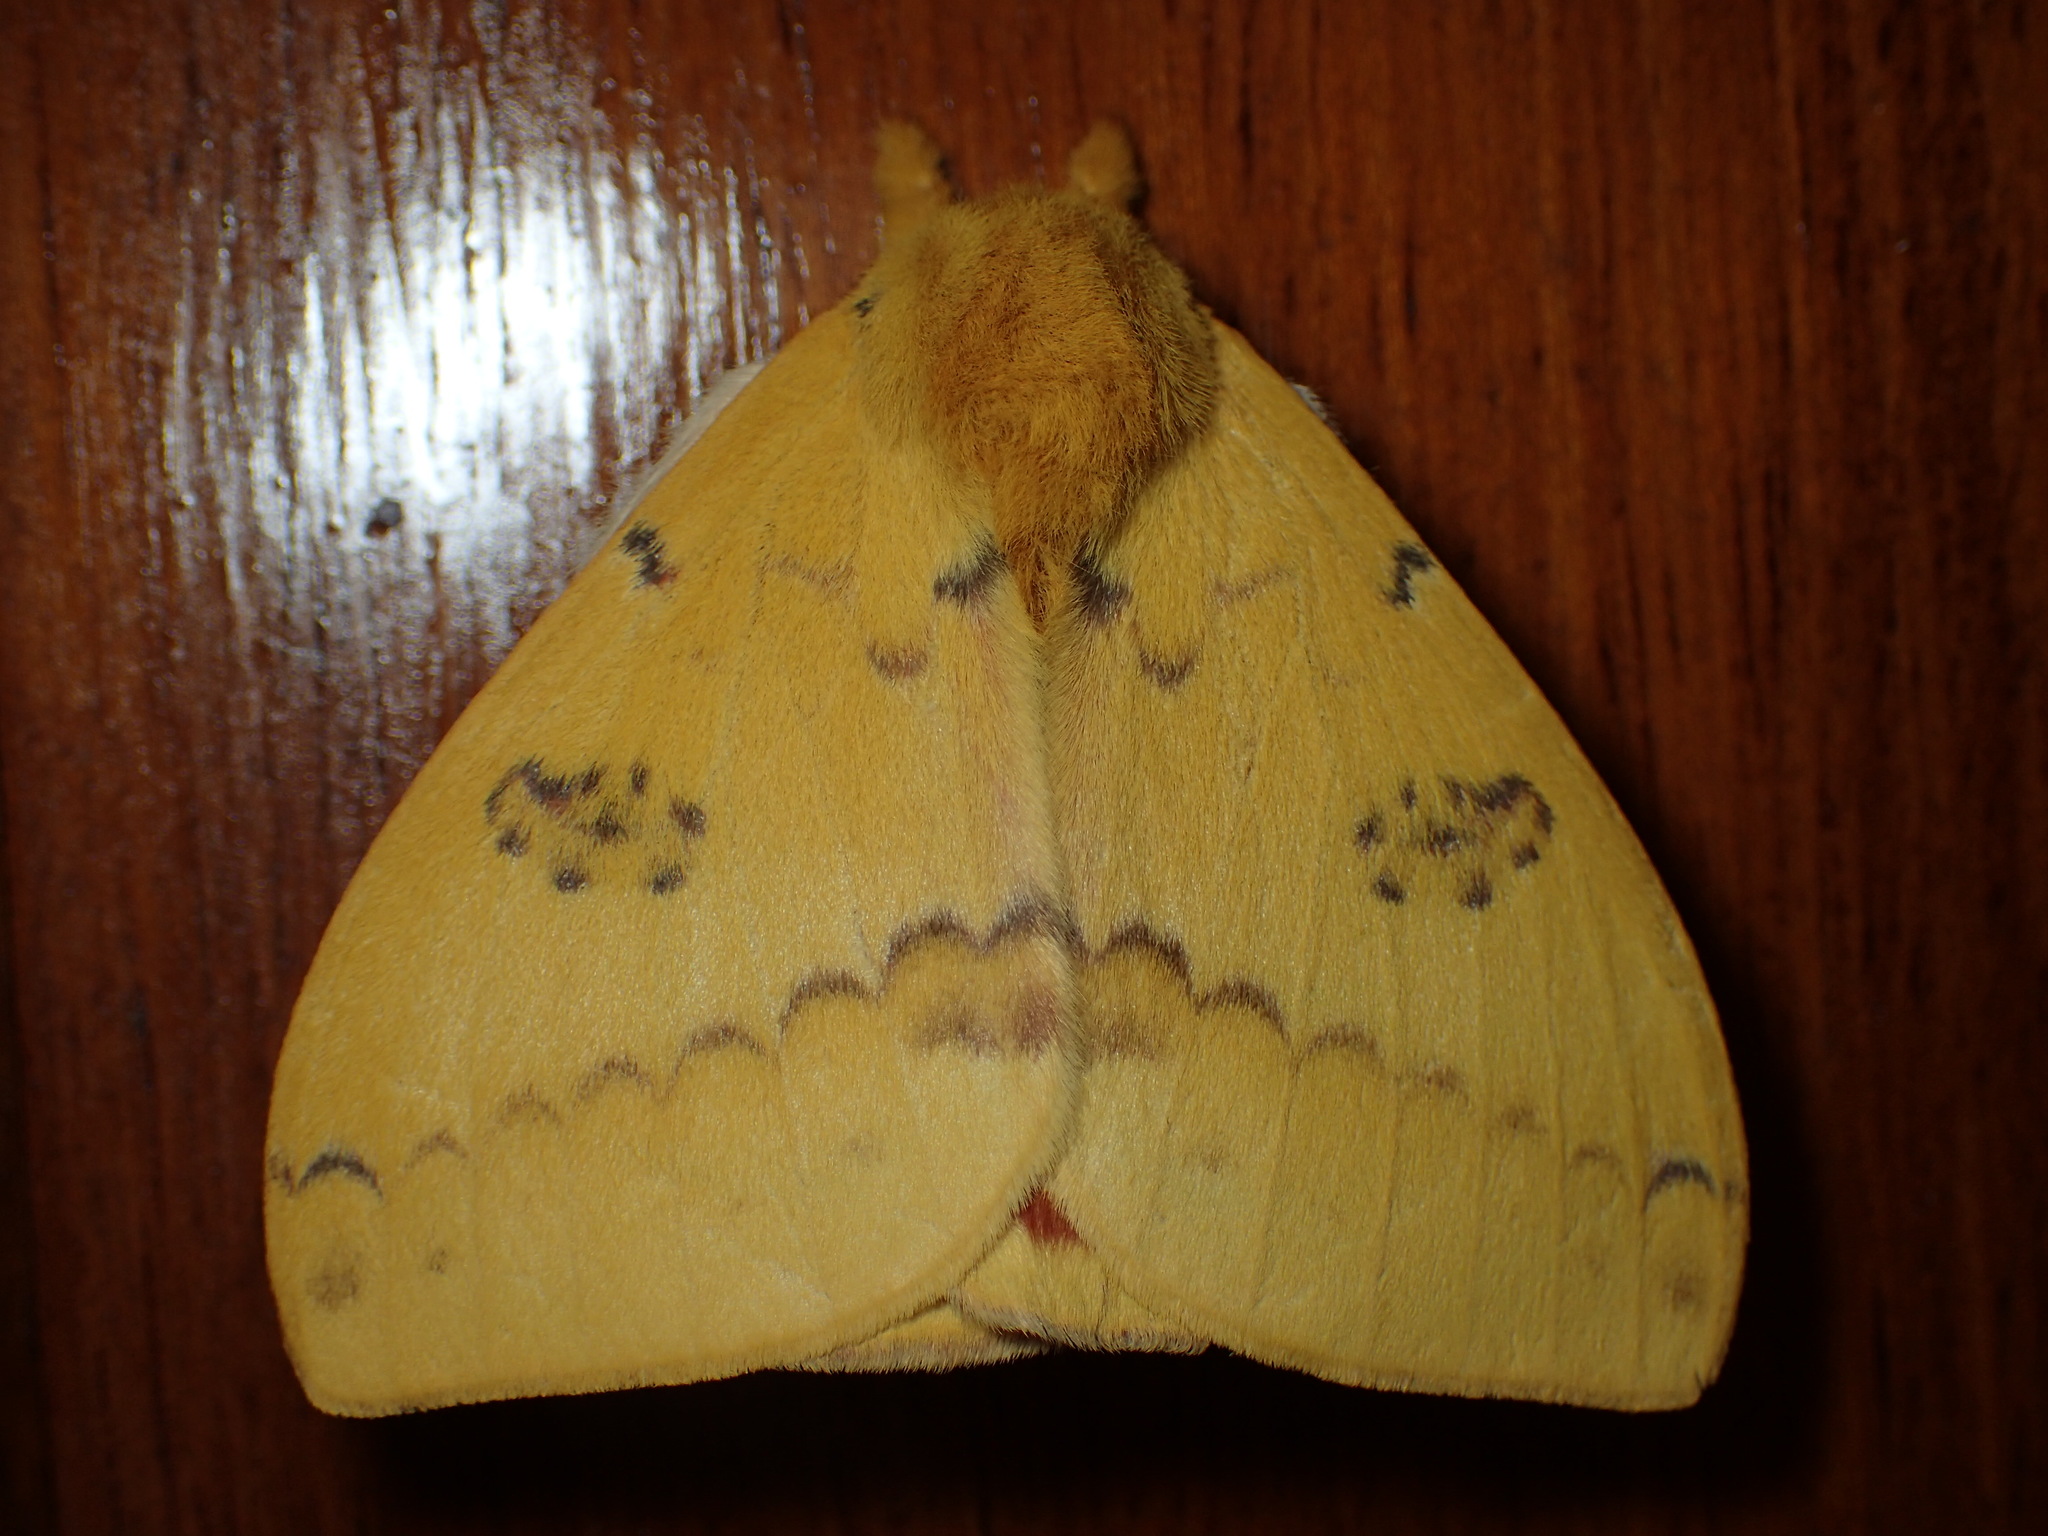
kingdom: Animalia
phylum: Arthropoda
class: Insecta
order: Lepidoptera
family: Saturniidae
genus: Automeris
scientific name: Automeris io
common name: Io moth
